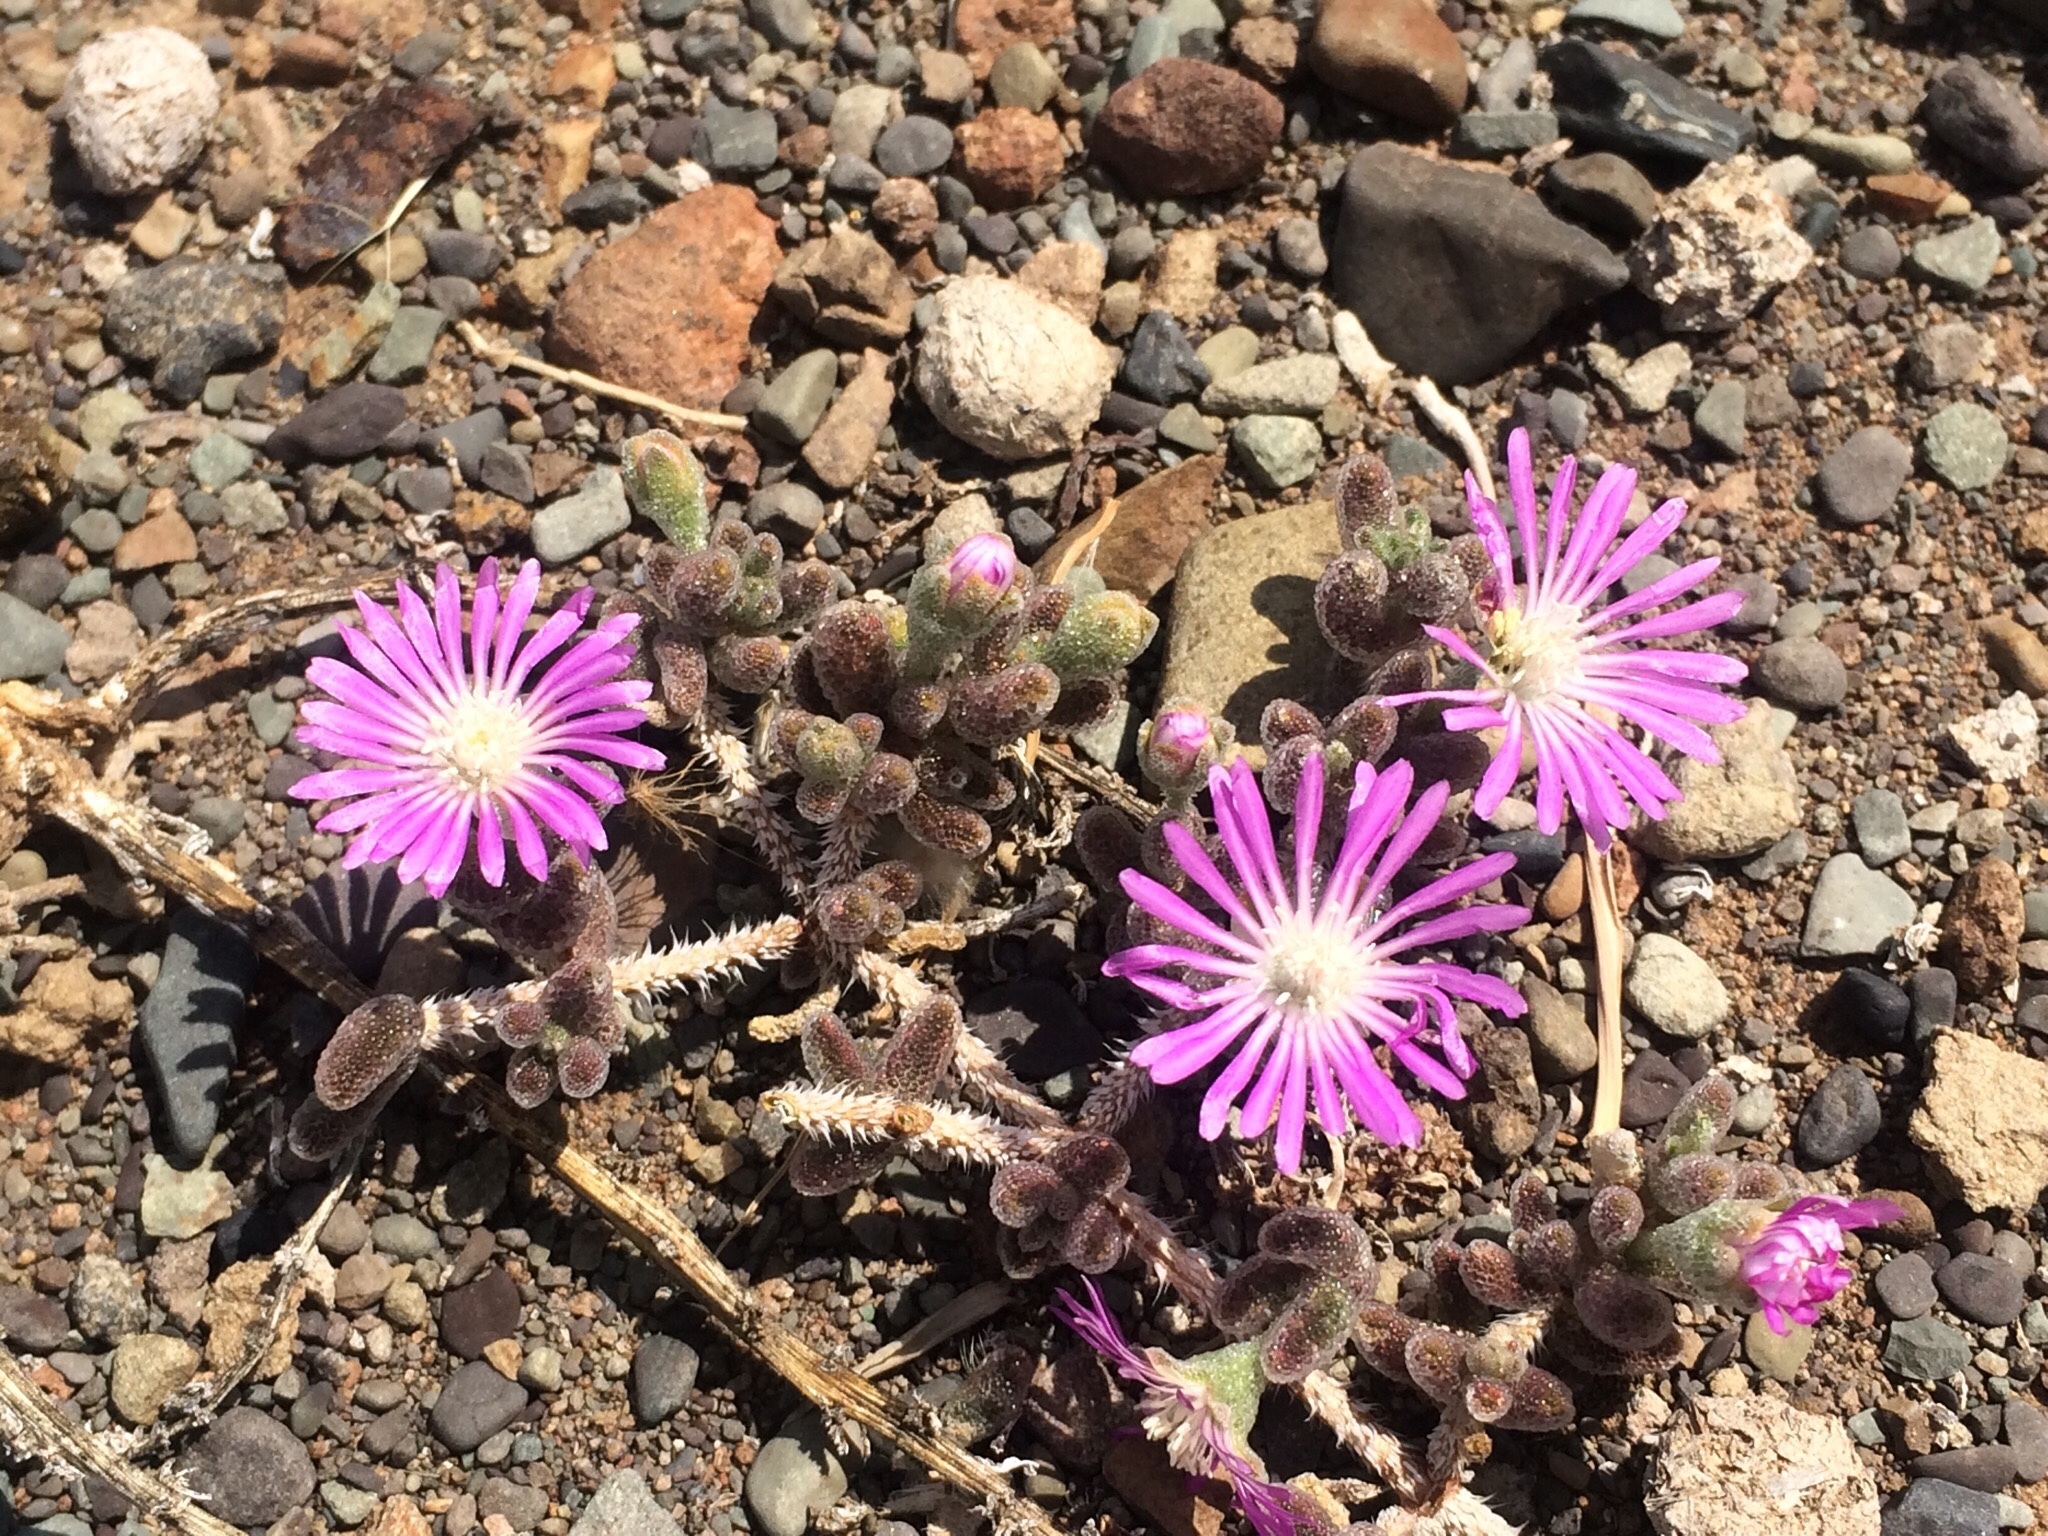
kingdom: Plantae
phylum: Tracheophyta
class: Magnoliopsida
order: Caryophyllales
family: Aizoaceae
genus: Drosanthemum
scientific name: Drosanthemum archeri
